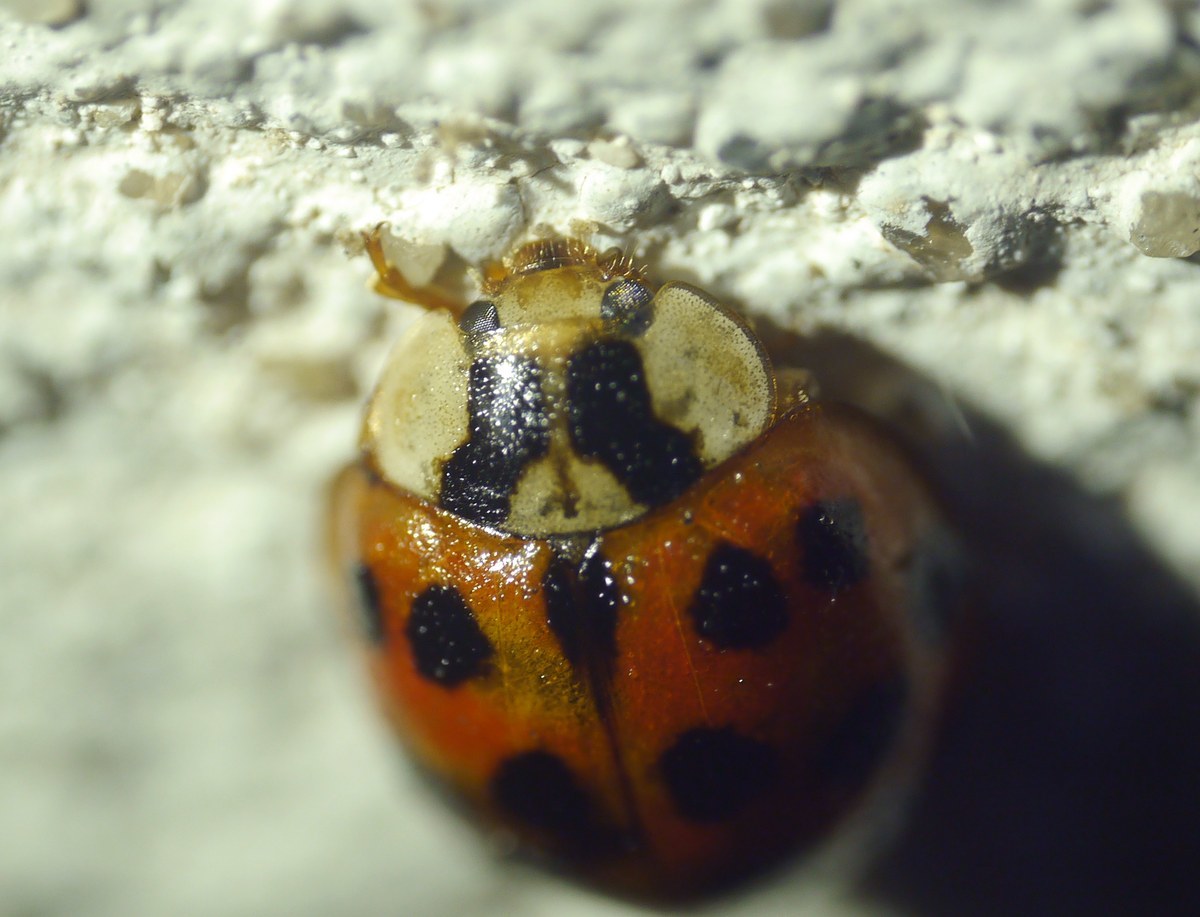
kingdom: Animalia
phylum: Arthropoda
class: Insecta
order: Coleoptera
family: Coccinellidae
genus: Harmonia
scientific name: Harmonia axyridis
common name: Harlequin ladybird
